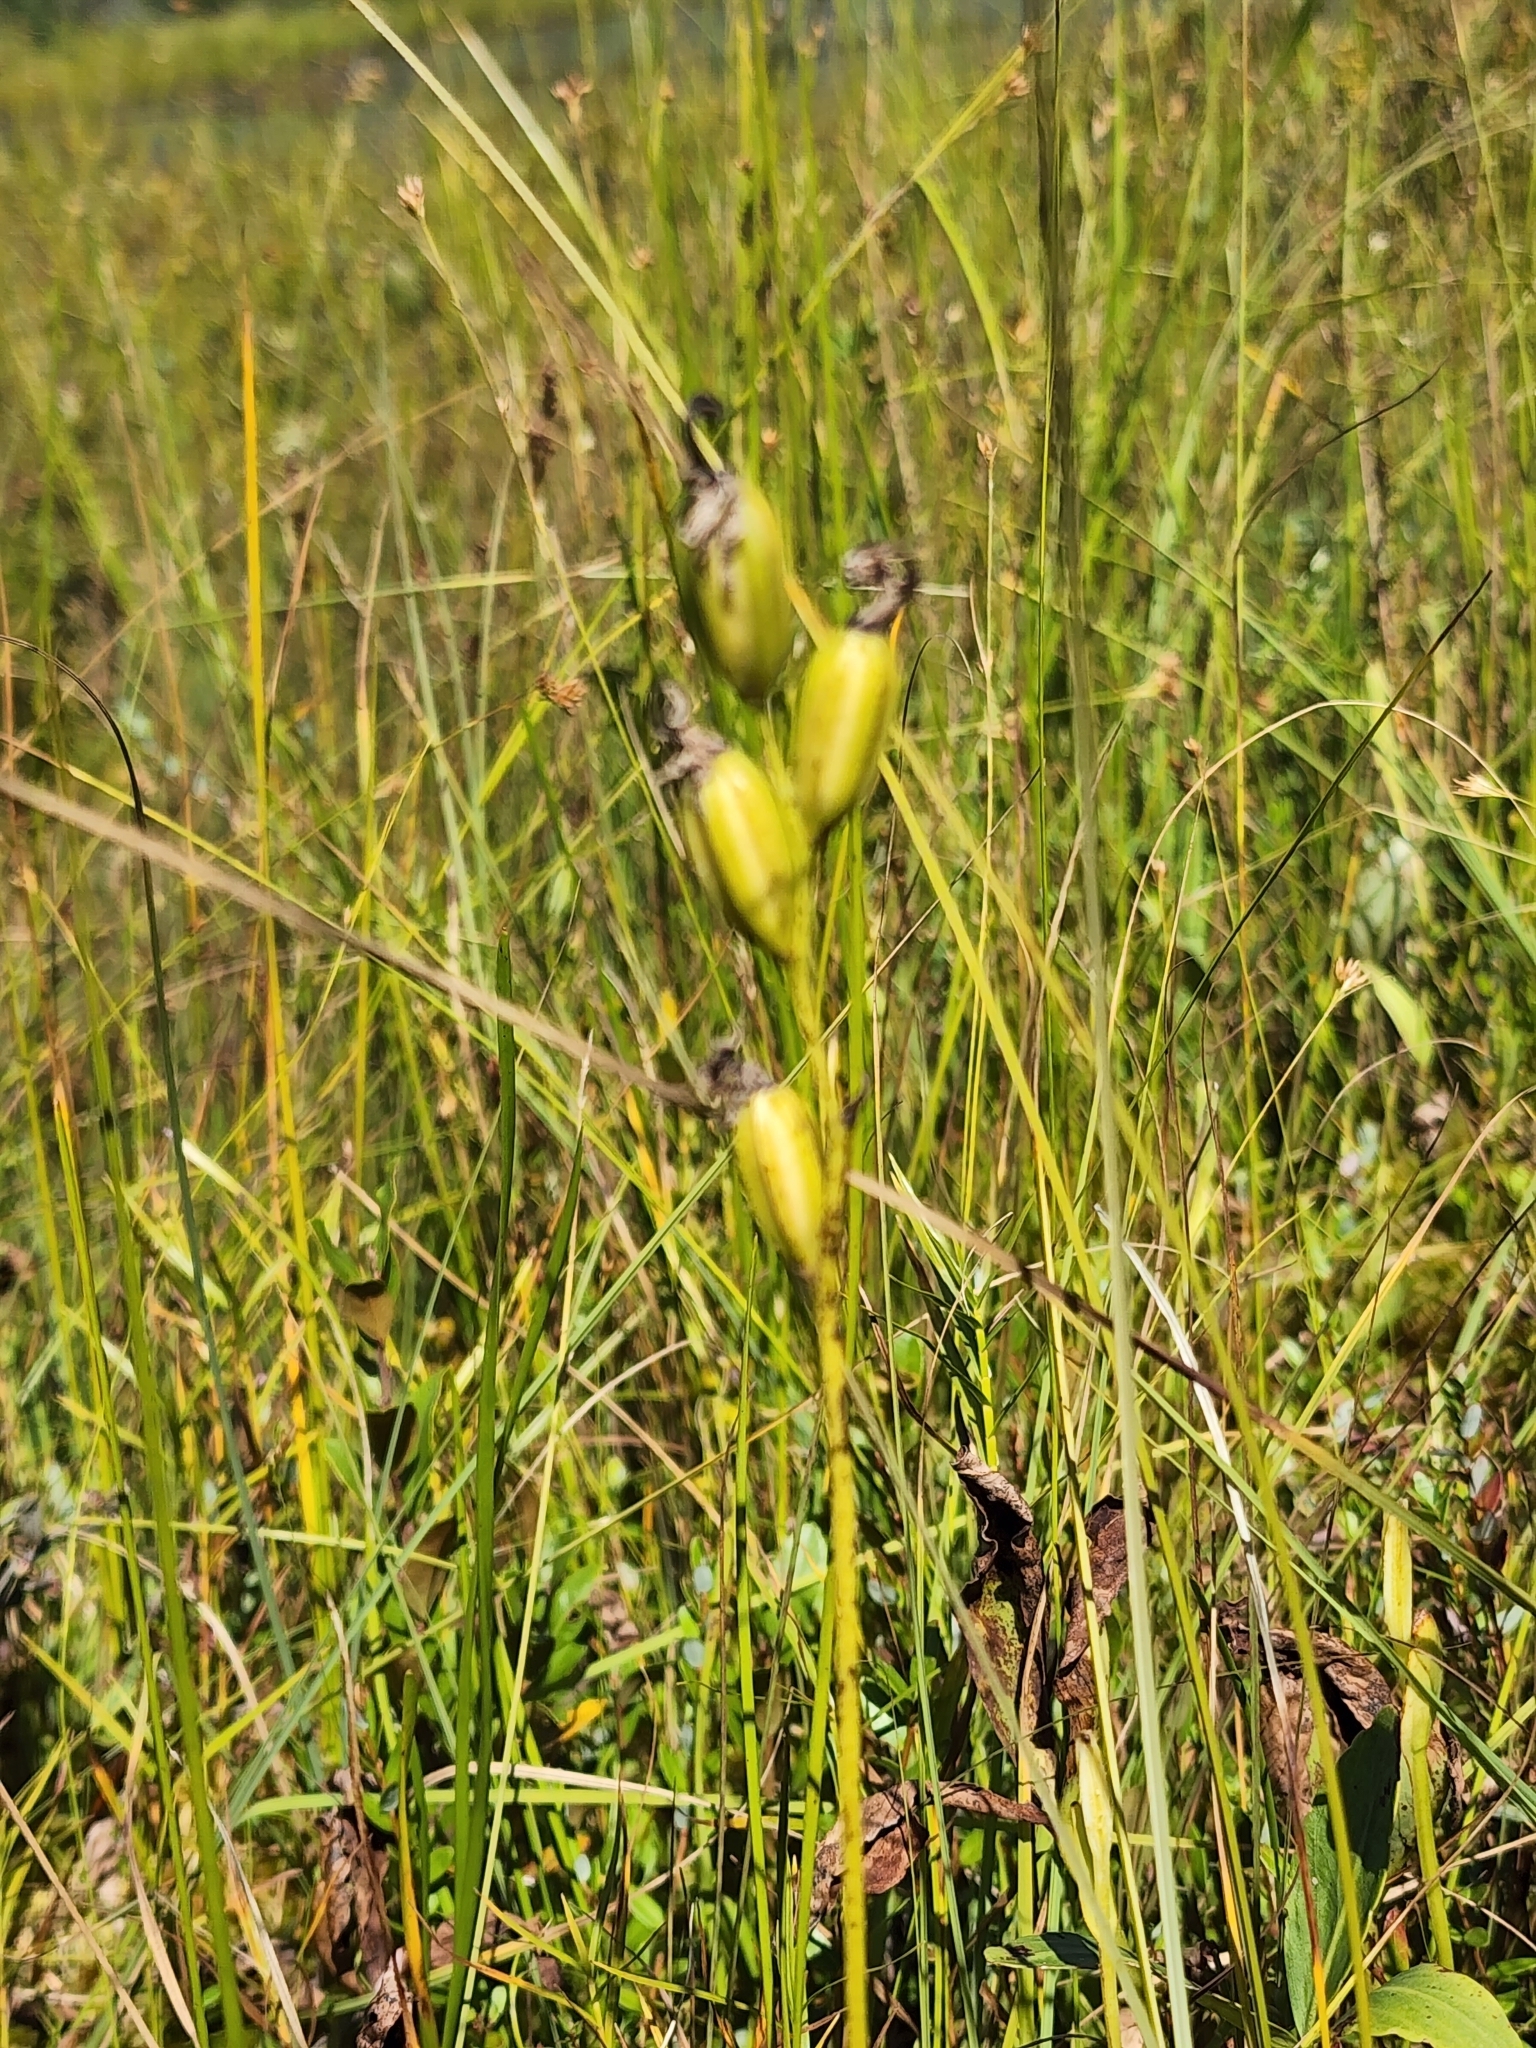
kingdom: Plantae
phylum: Tracheophyta
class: Liliopsida
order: Asparagales
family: Orchidaceae
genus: Calopogon
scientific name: Calopogon tuberosus
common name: Grass-pink
